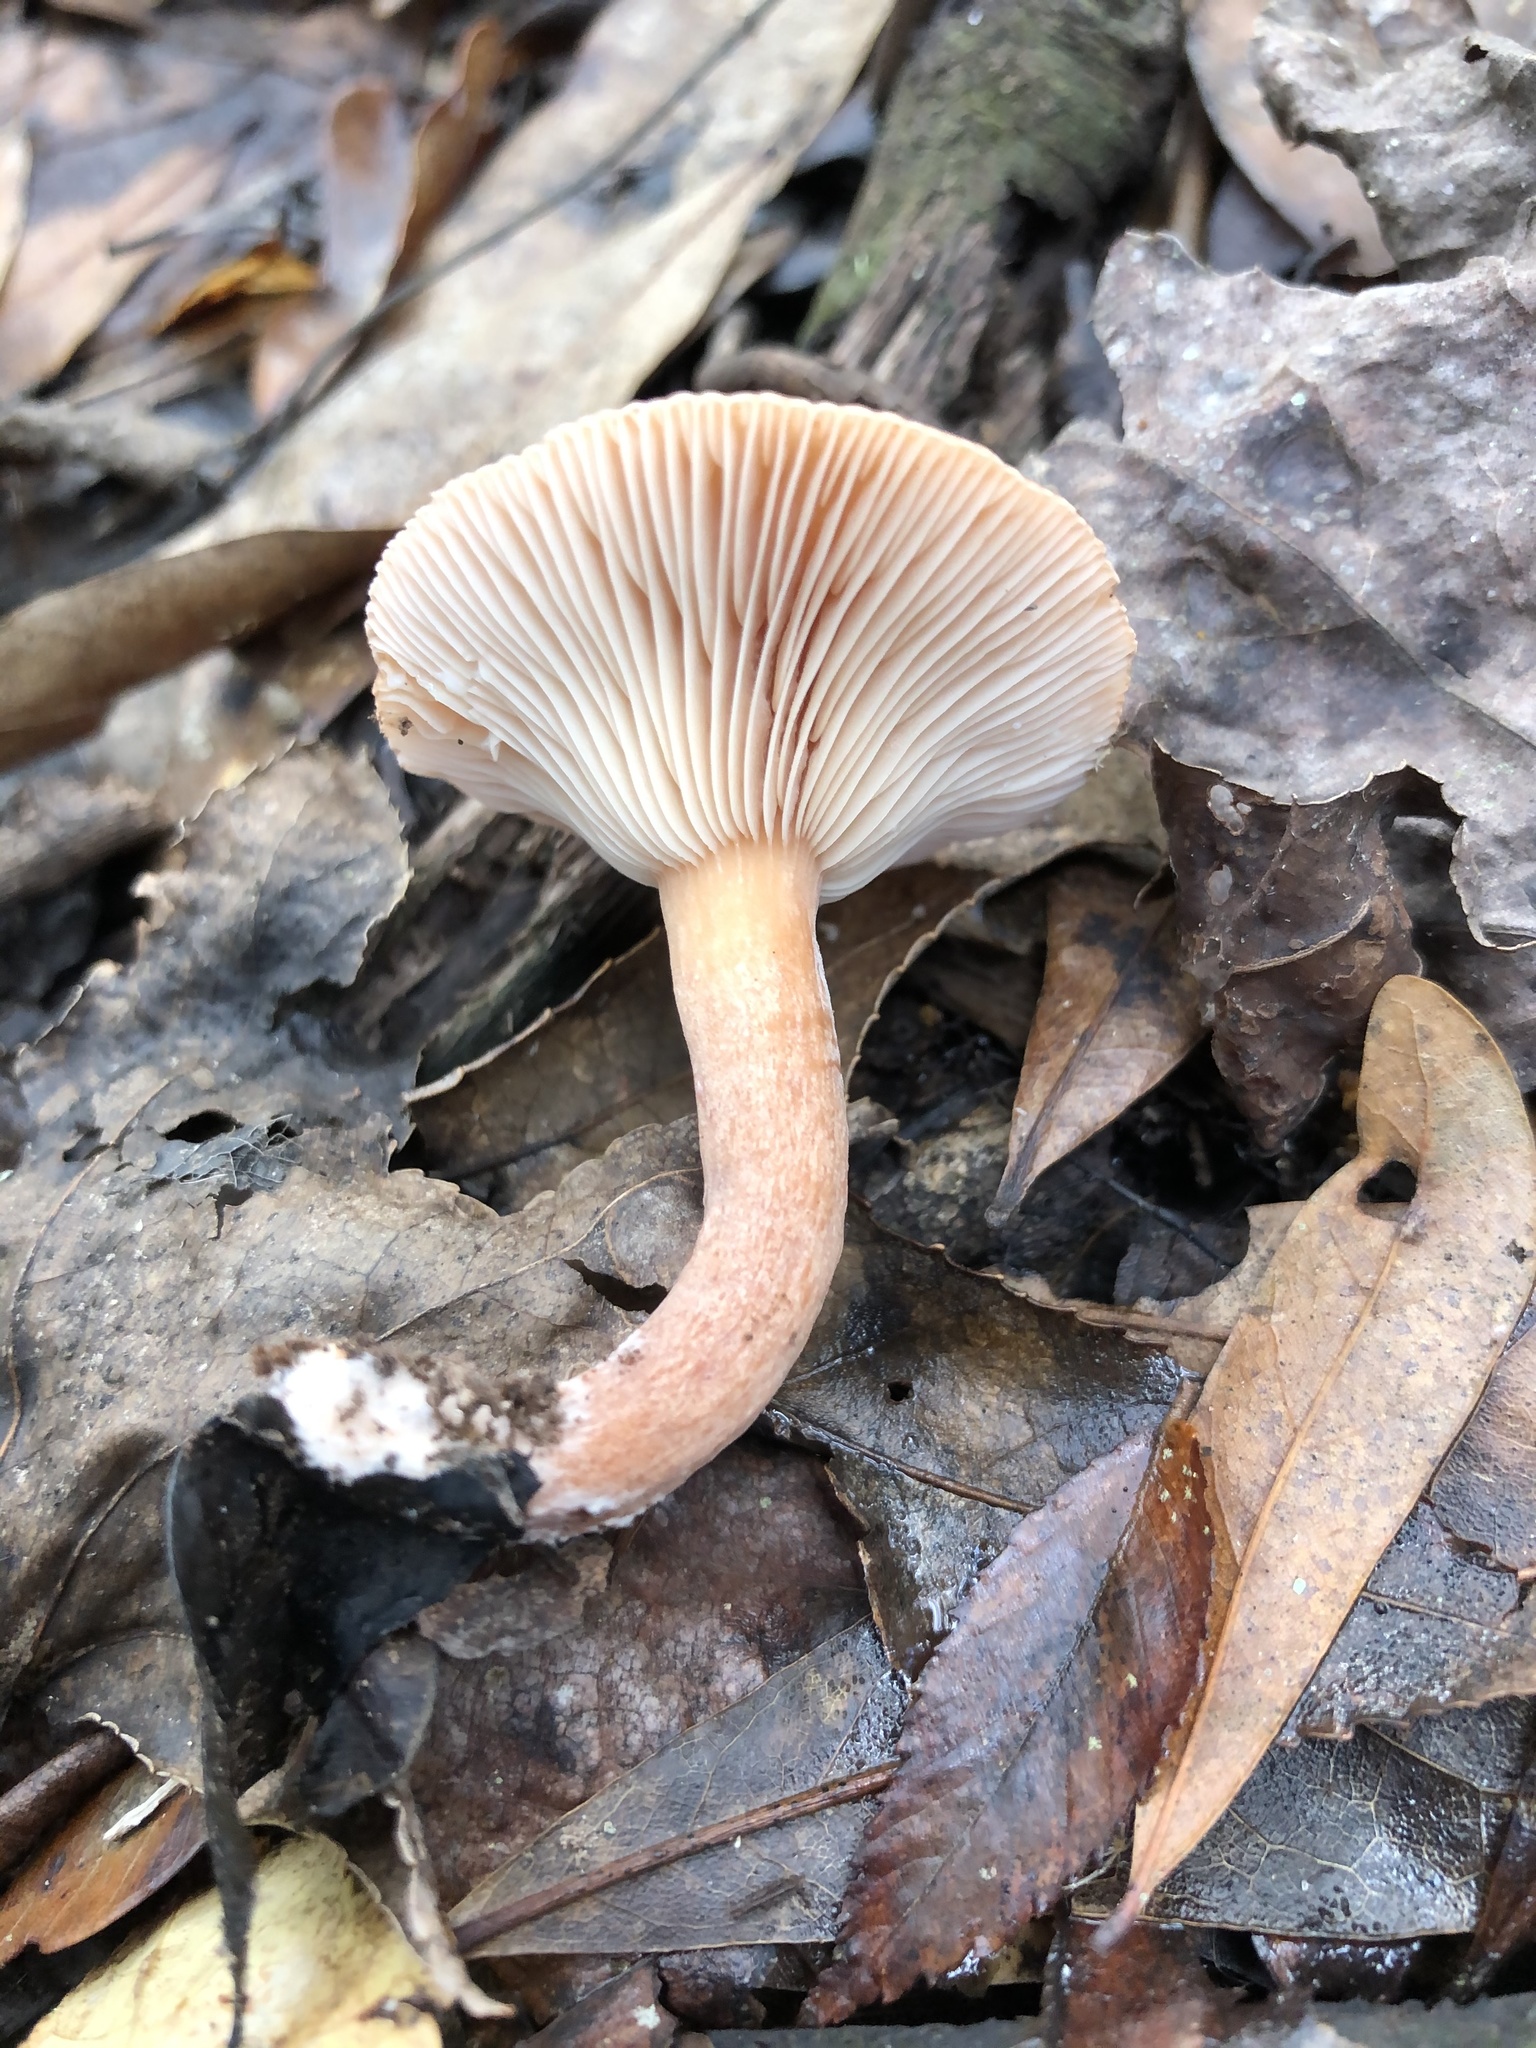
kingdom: Fungi
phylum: Basidiomycota
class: Agaricomycetes
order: Russulales
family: Russulaceae
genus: Lactarius
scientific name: Lactarius quietus
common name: Oak milk-cap
